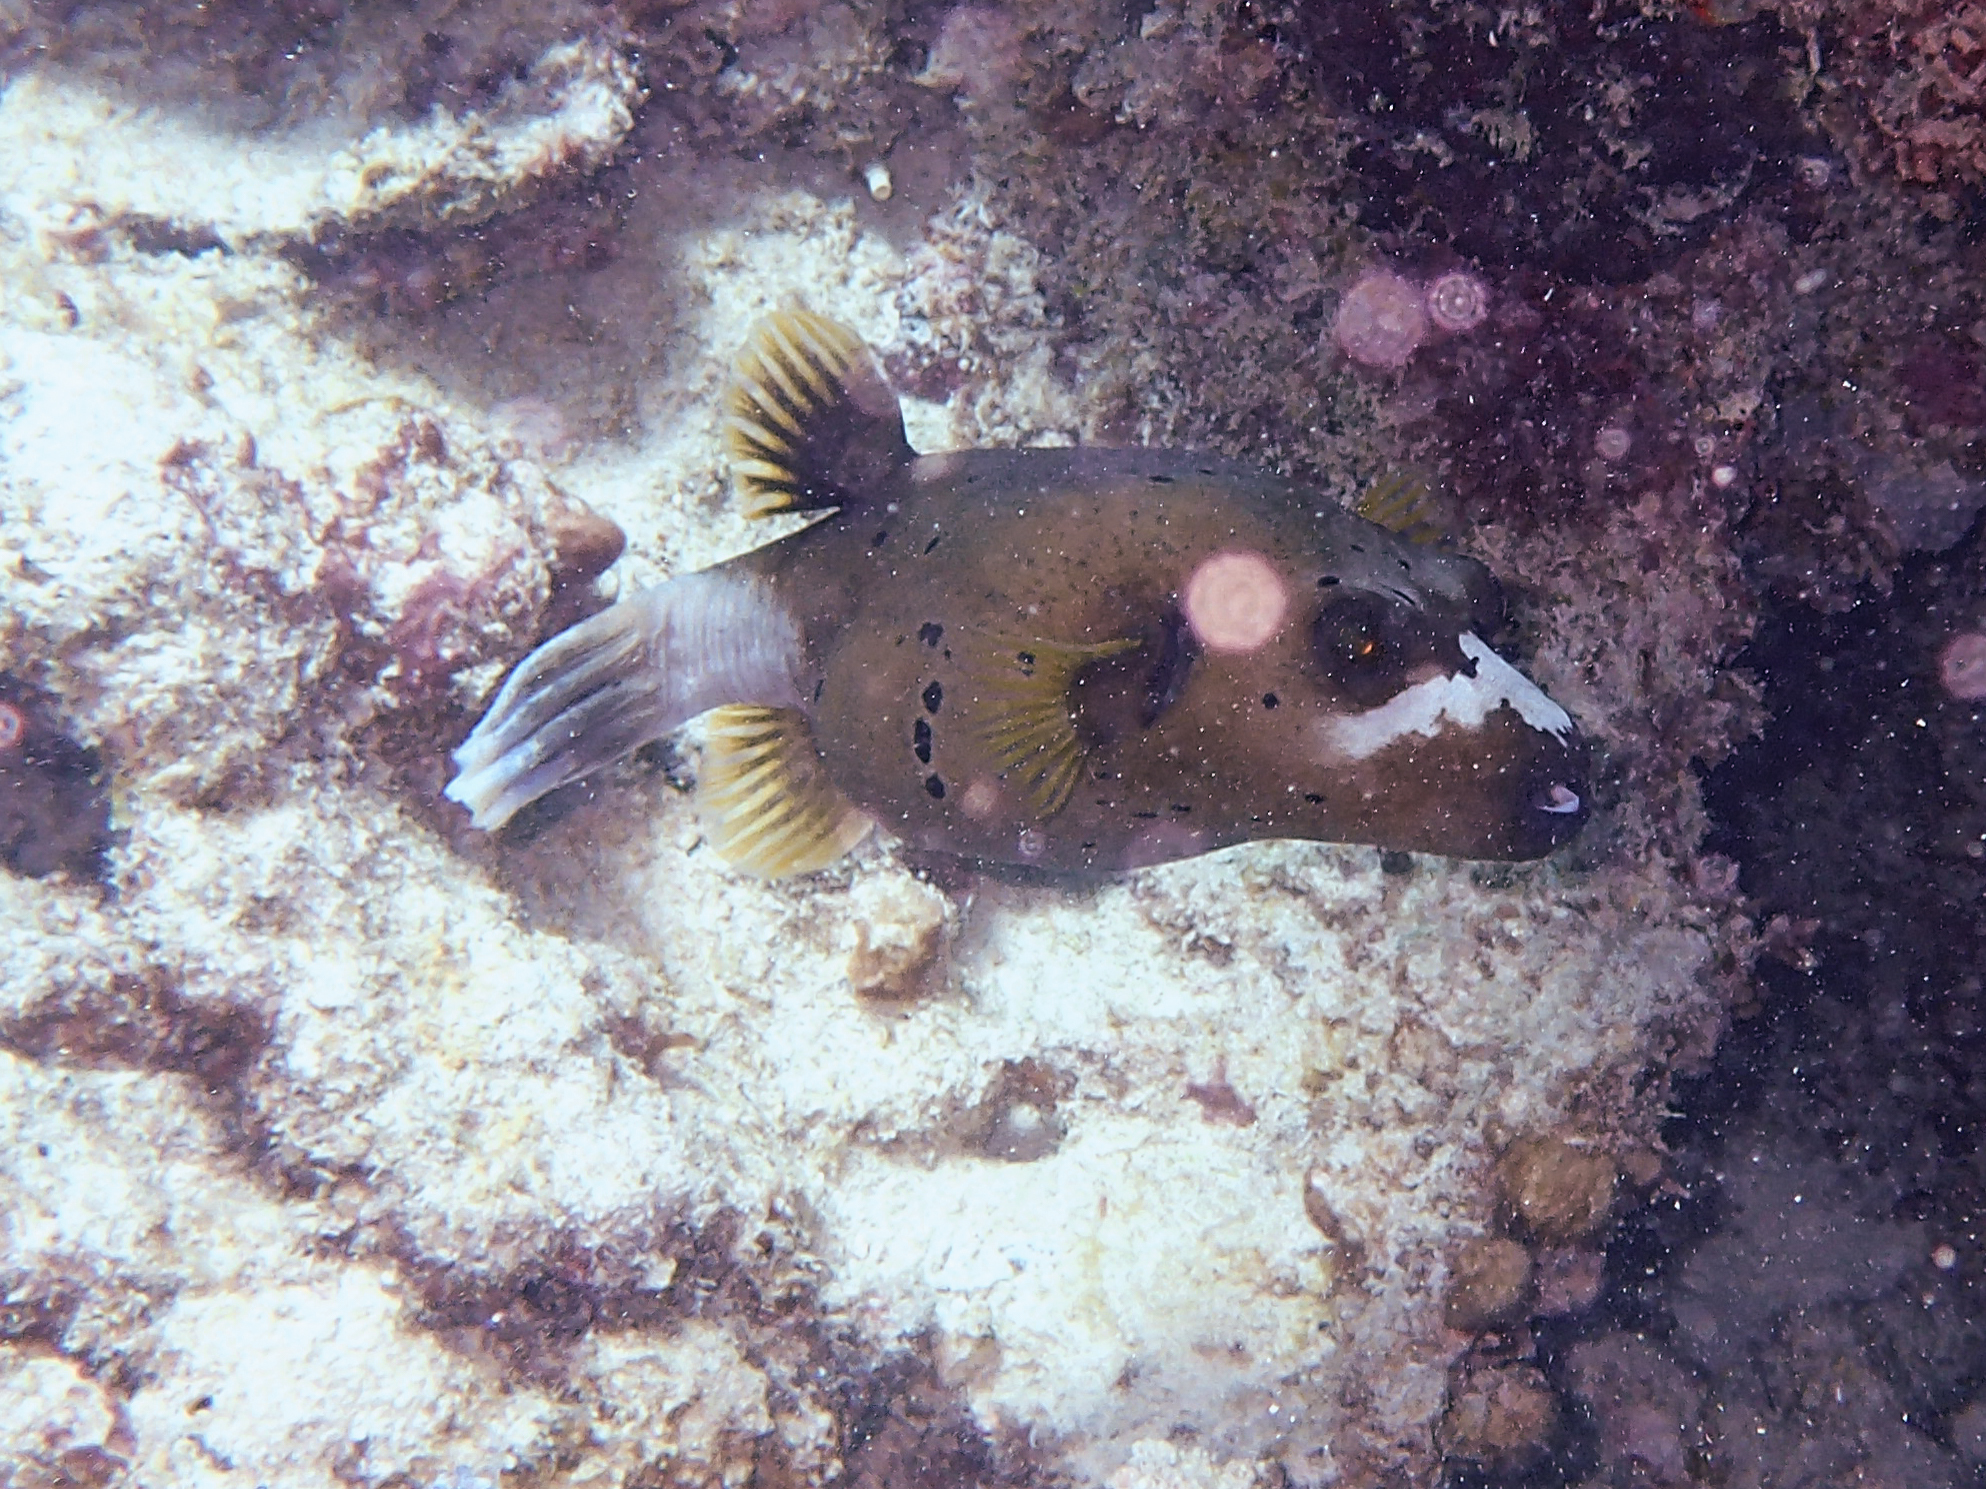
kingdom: Animalia
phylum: Chordata
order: Tetraodontiformes
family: Tetraodontidae
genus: Arothron
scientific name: Arothron nigropunctatus
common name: Black spotted blow fish
